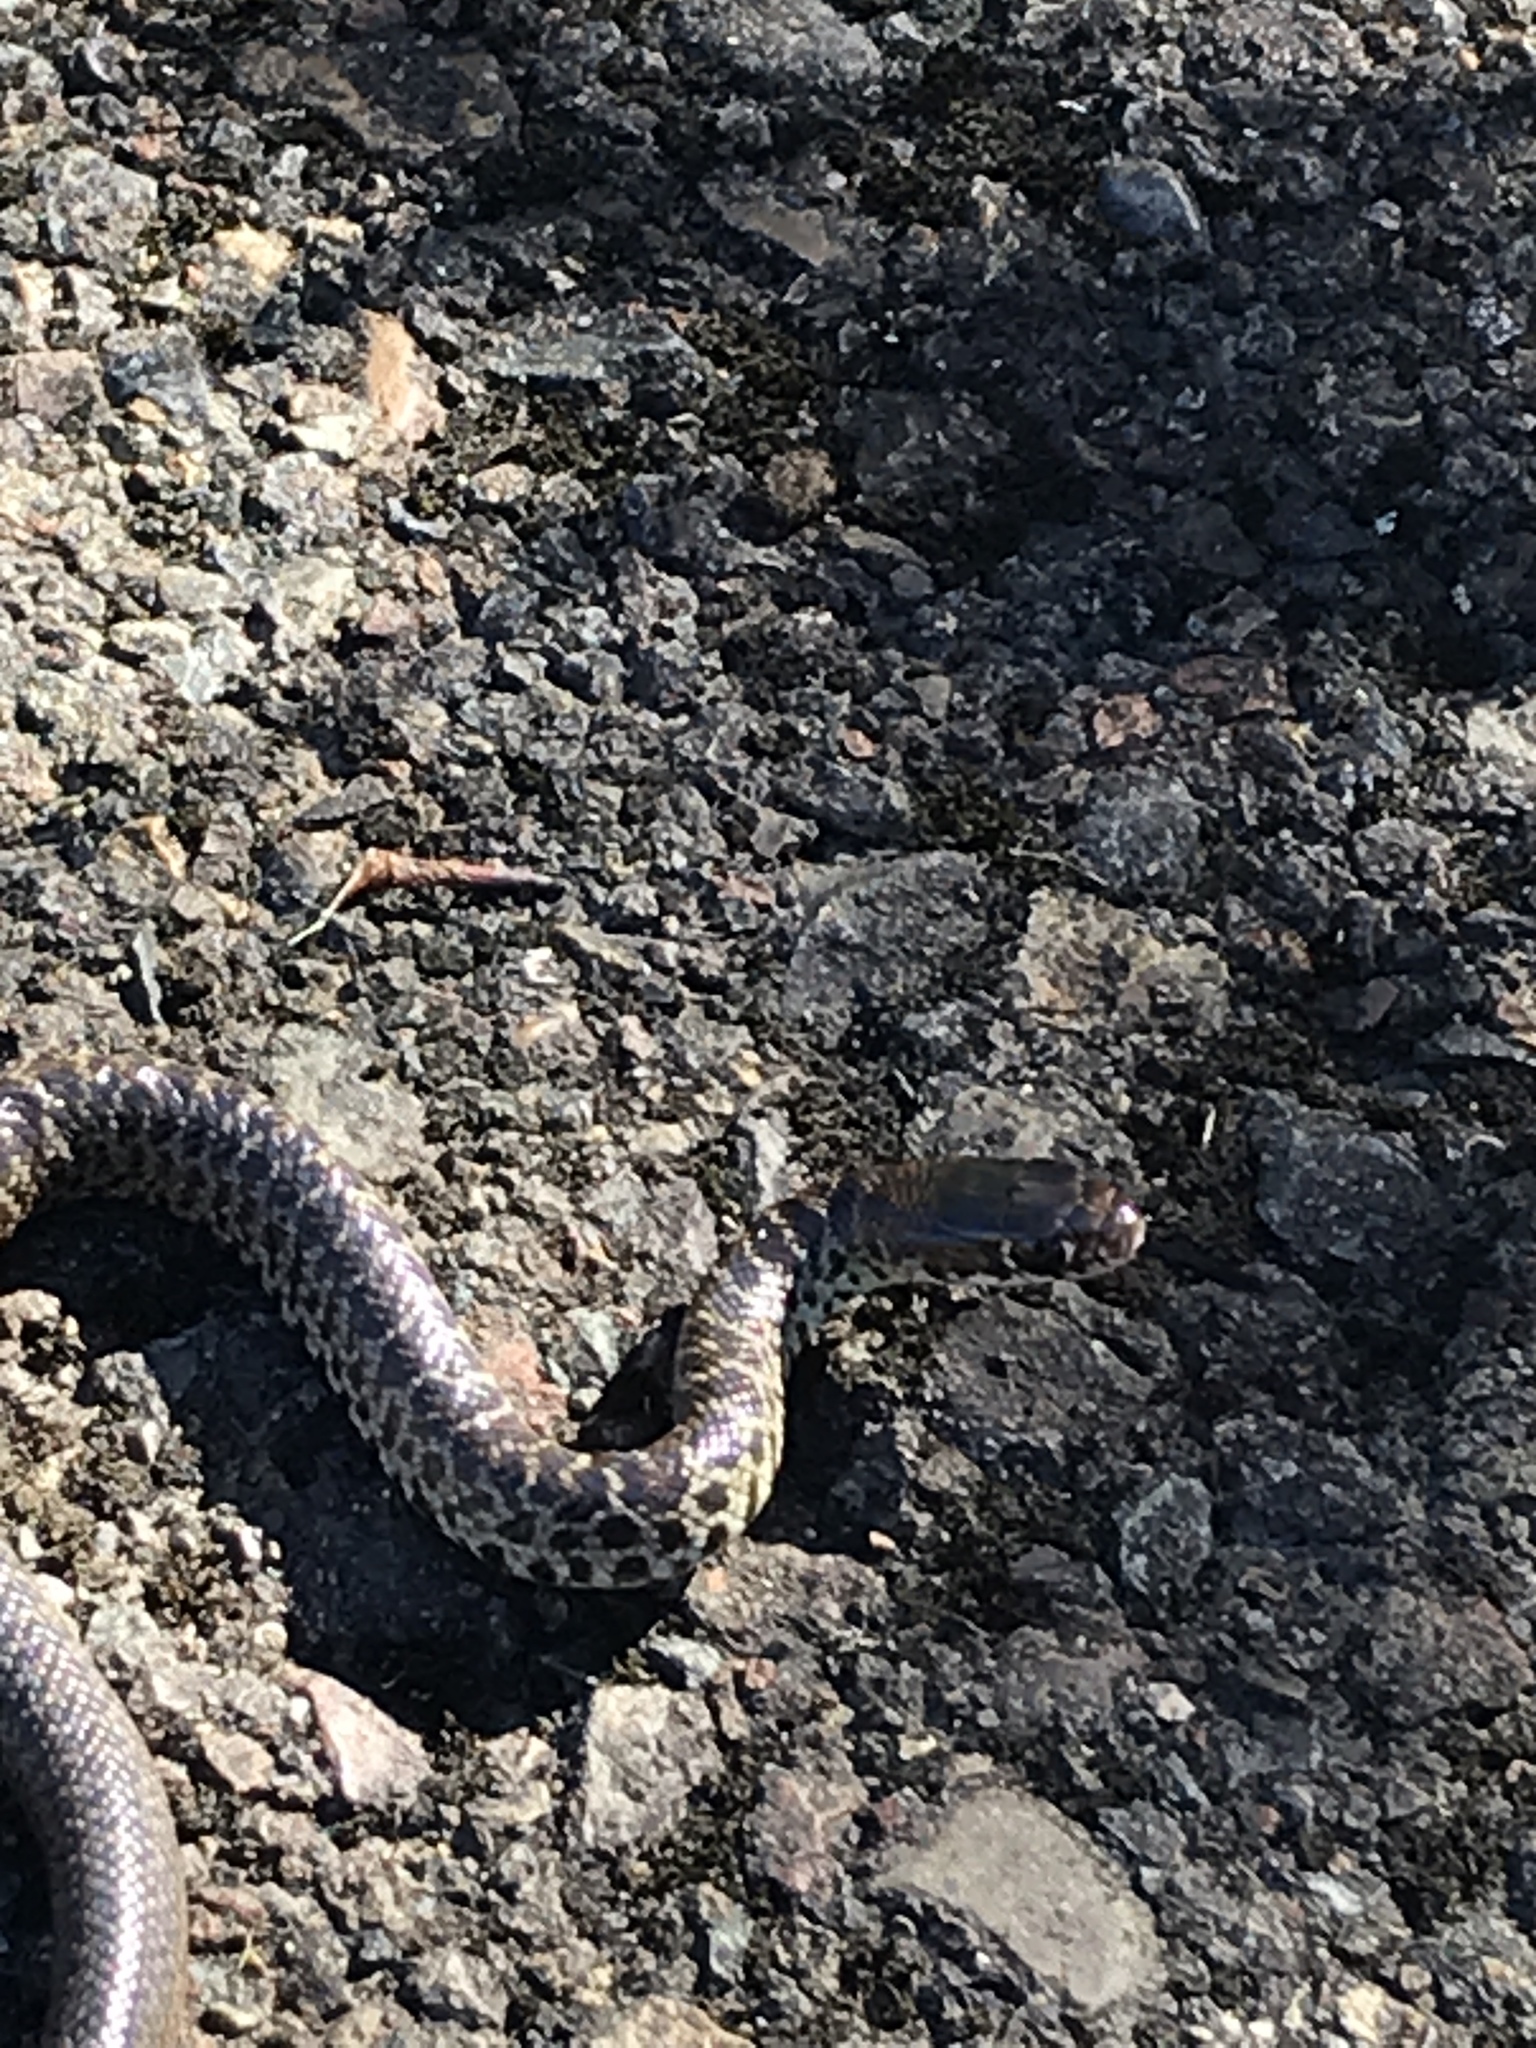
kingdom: Animalia
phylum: Chordata
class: Squamata
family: Colubridae
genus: Coluber
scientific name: Coluber constrictor
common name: Eastern racer
